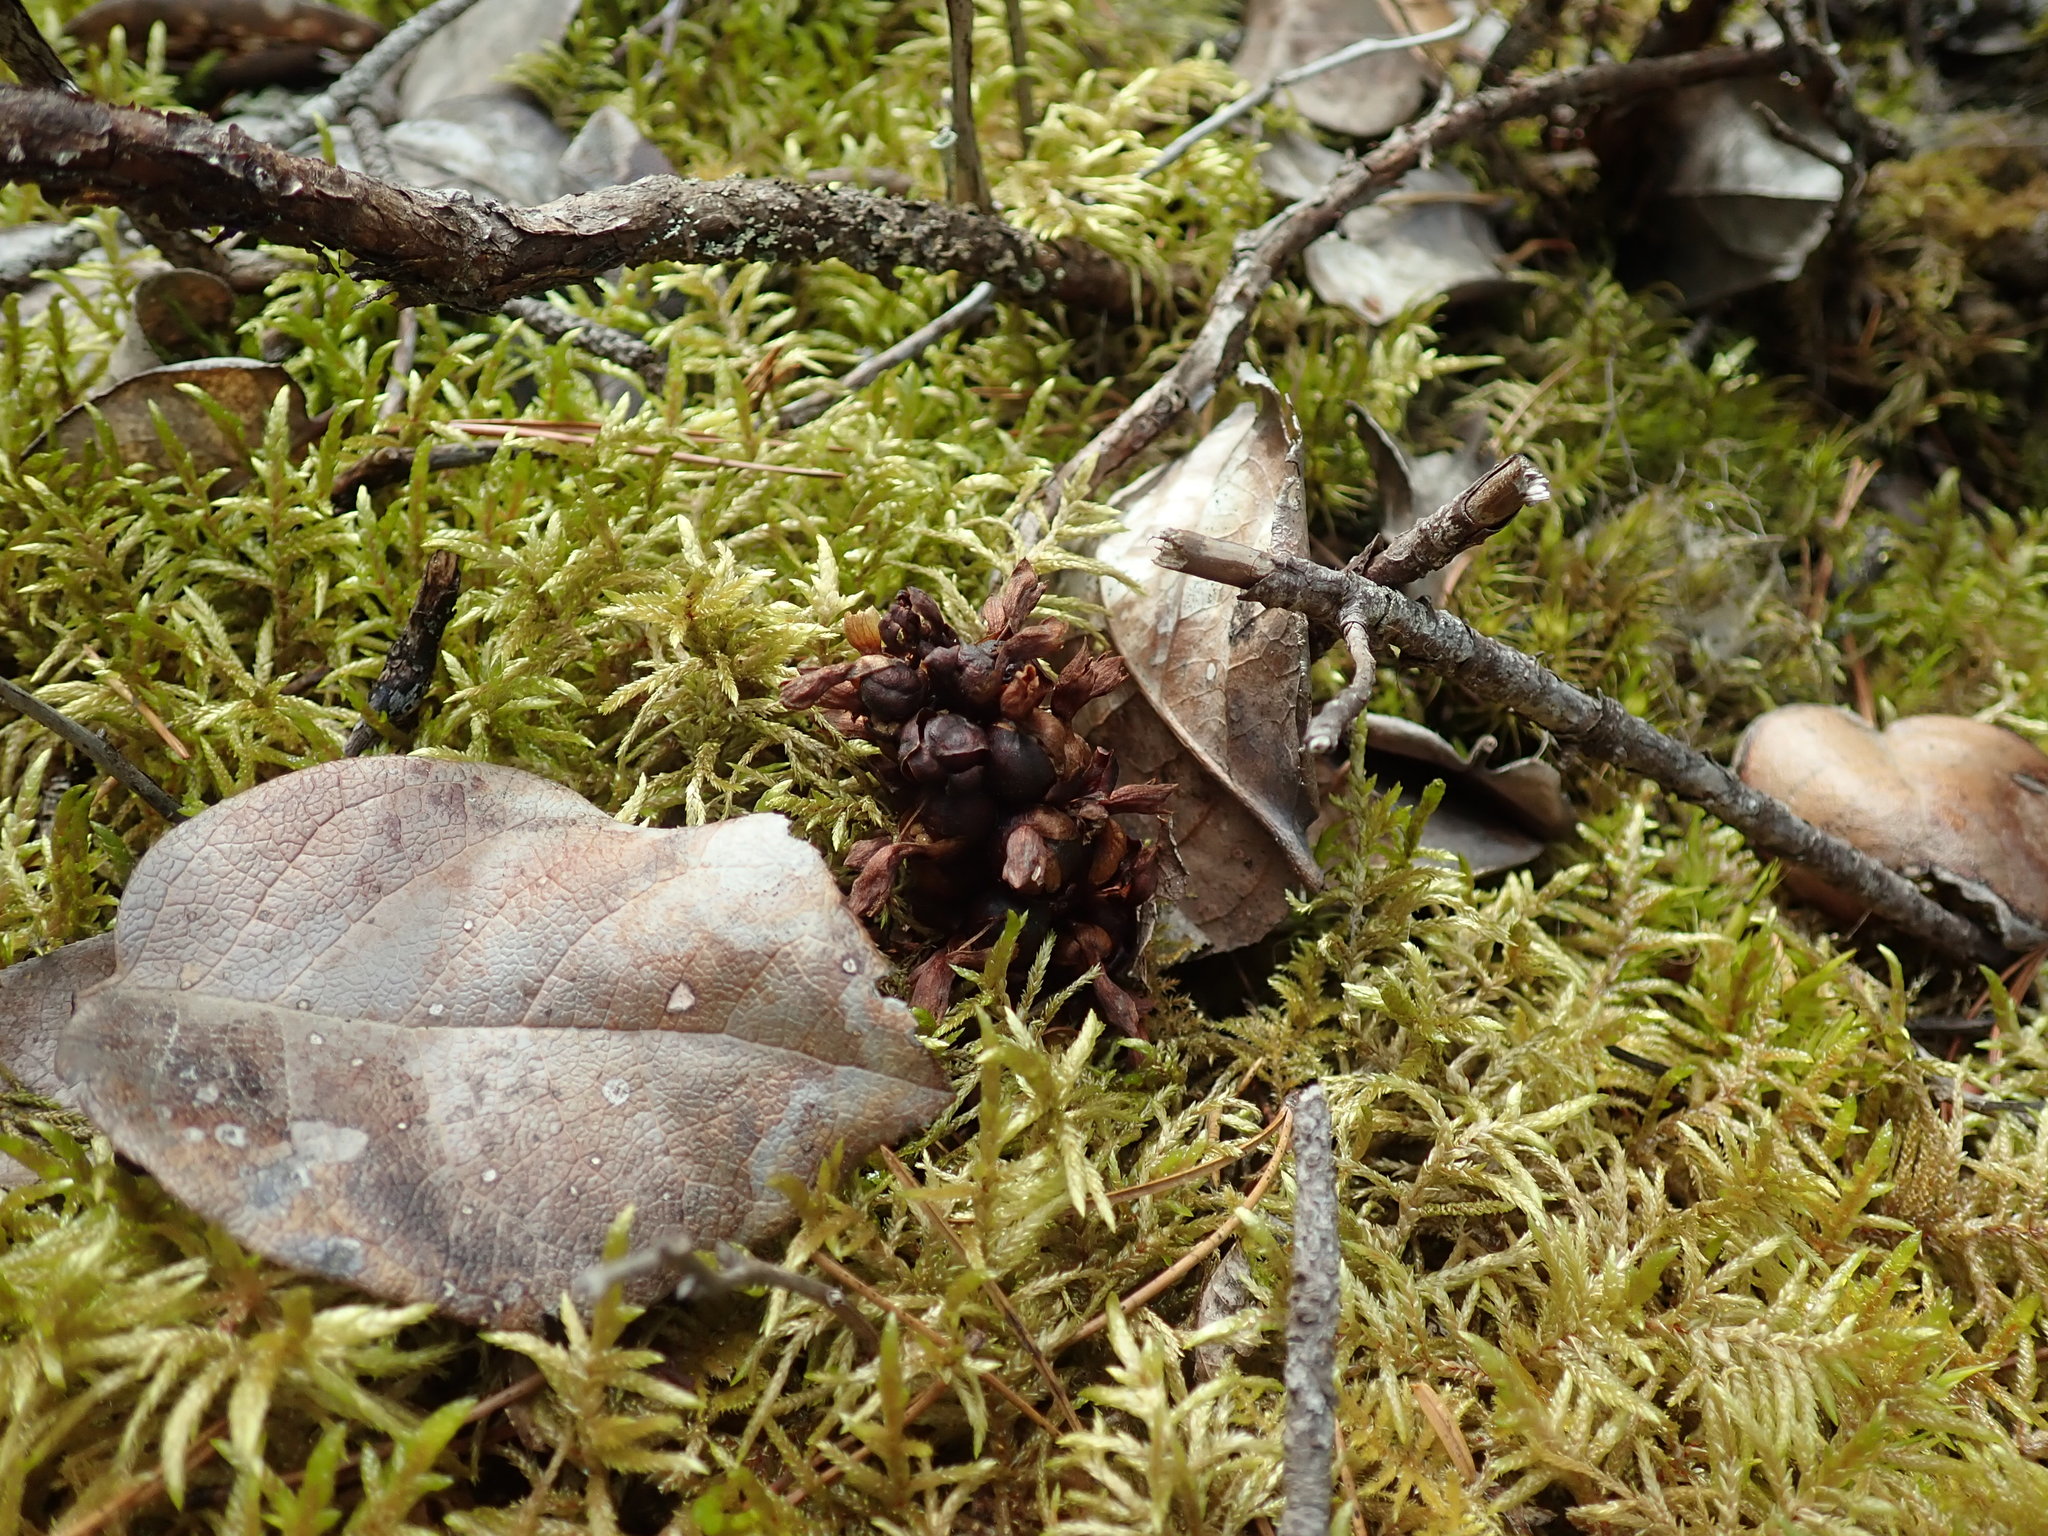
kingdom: Plantae
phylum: Tracheophyta
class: Magnoliopsida
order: Lamiales
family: Orobanchaceae
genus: Kopsiopsis
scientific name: Kopsiopsis hookeri
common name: Hooker's groundcone
